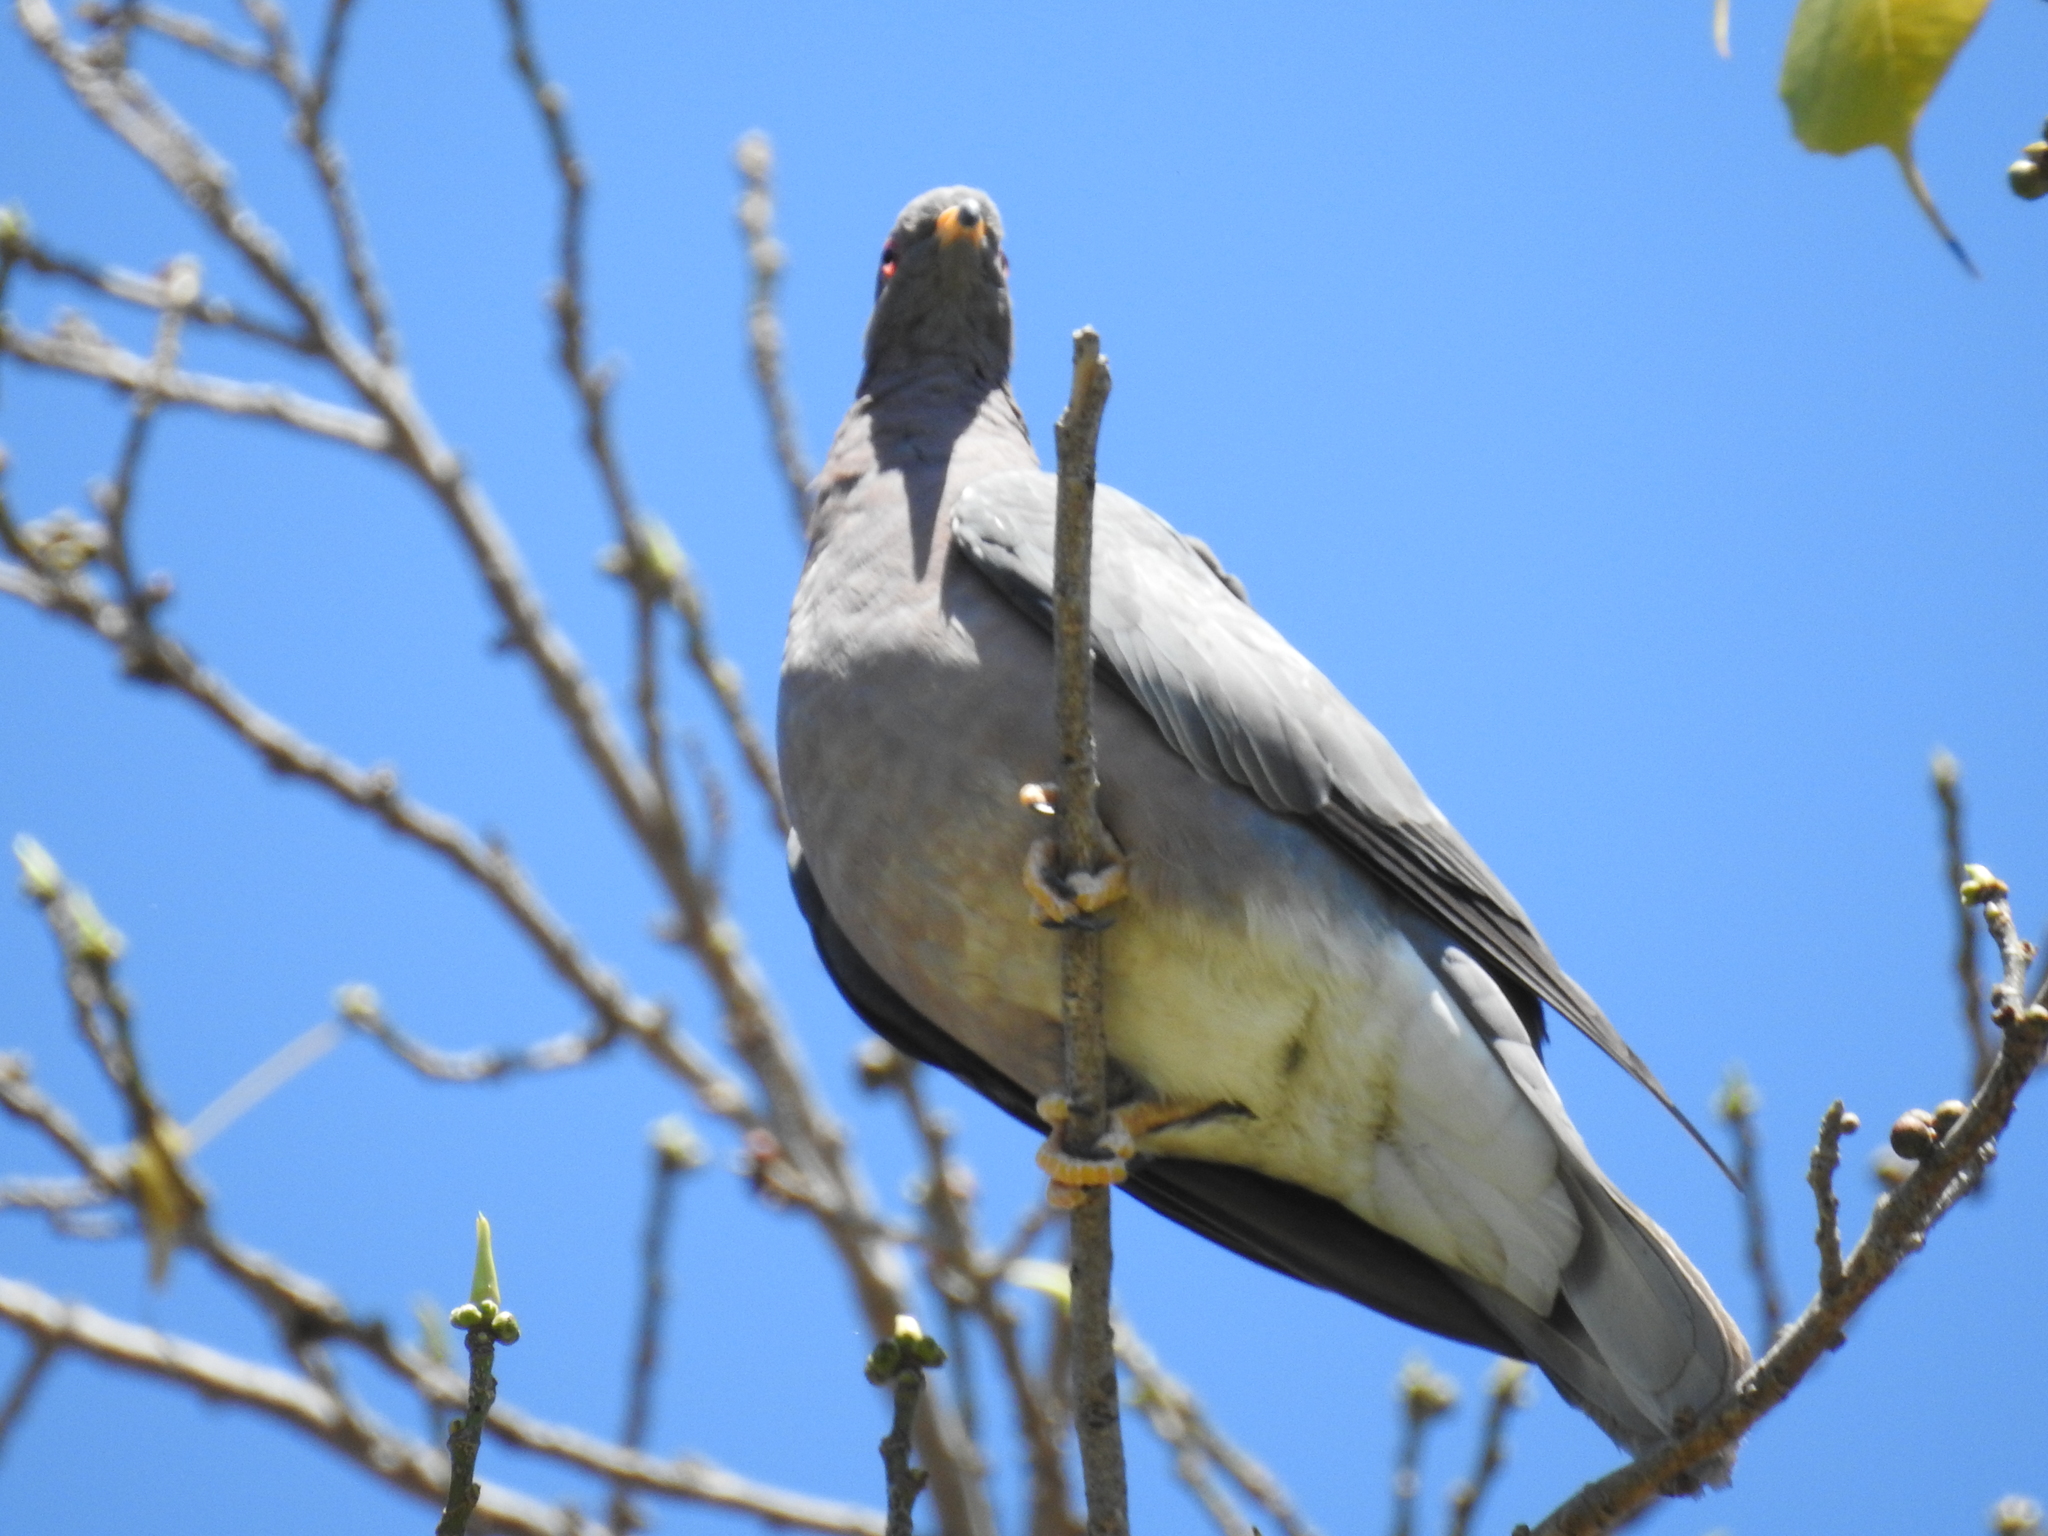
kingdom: Animalia
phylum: Chordata
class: Aves
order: Columbiformes
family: Columbidae
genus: Patagioenas
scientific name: Patagioenas fasciata
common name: Band-tailed pigeon
